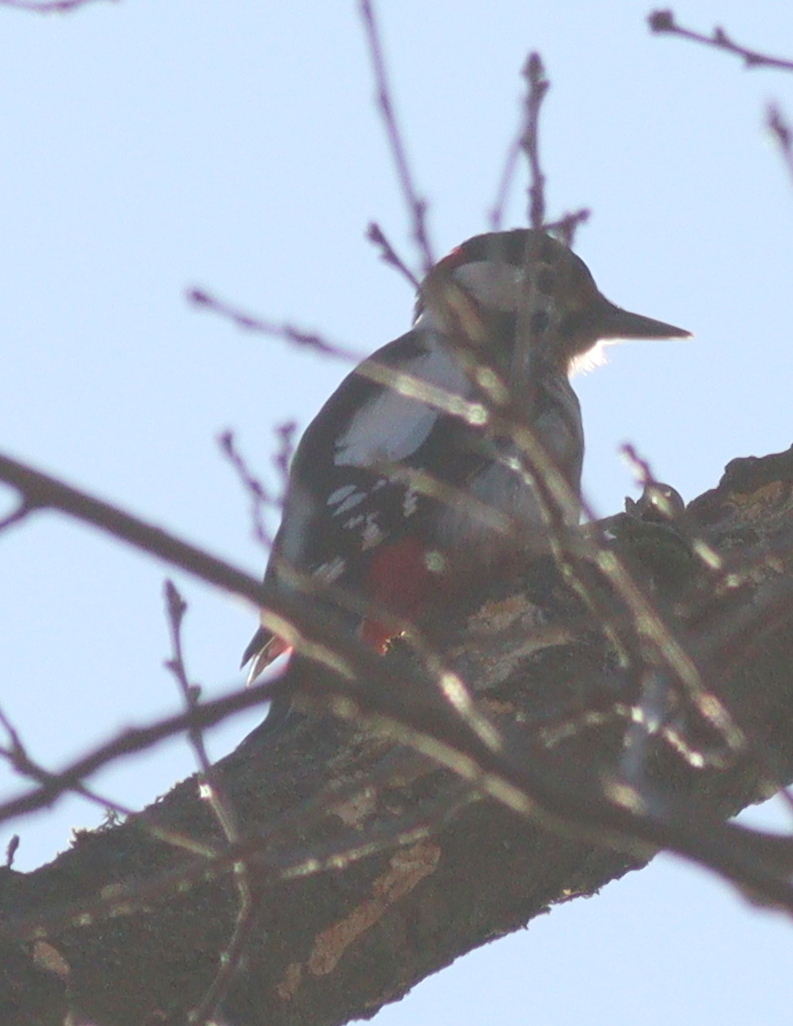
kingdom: Animalia
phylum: Chordata
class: Aves
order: Piciformes
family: Picidae
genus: Dendrocopos
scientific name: Dendrocopos major
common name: Great spotted woodpecker
